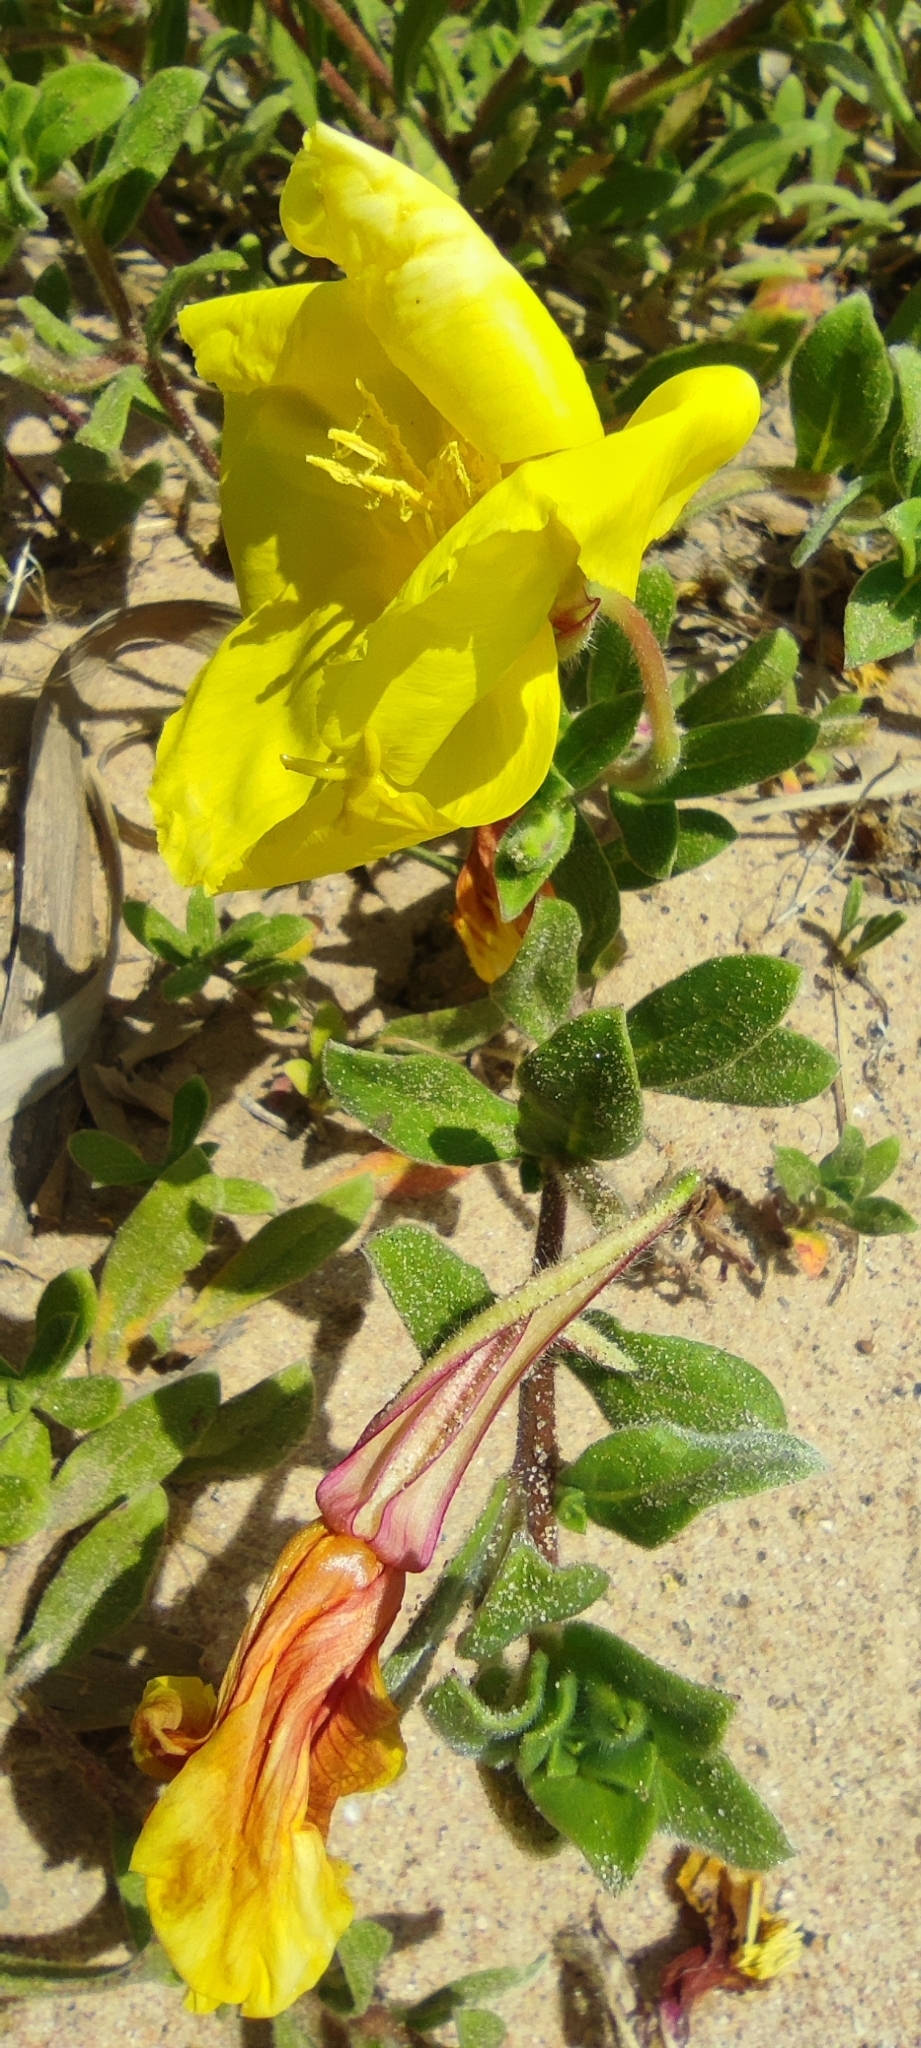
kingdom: Plantae
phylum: Tracheophyta
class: Magnoliopsida
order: Myrtales
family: Onagraceae
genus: Oenothera
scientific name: Oenothera drummondii
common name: Beach evening-primrose
